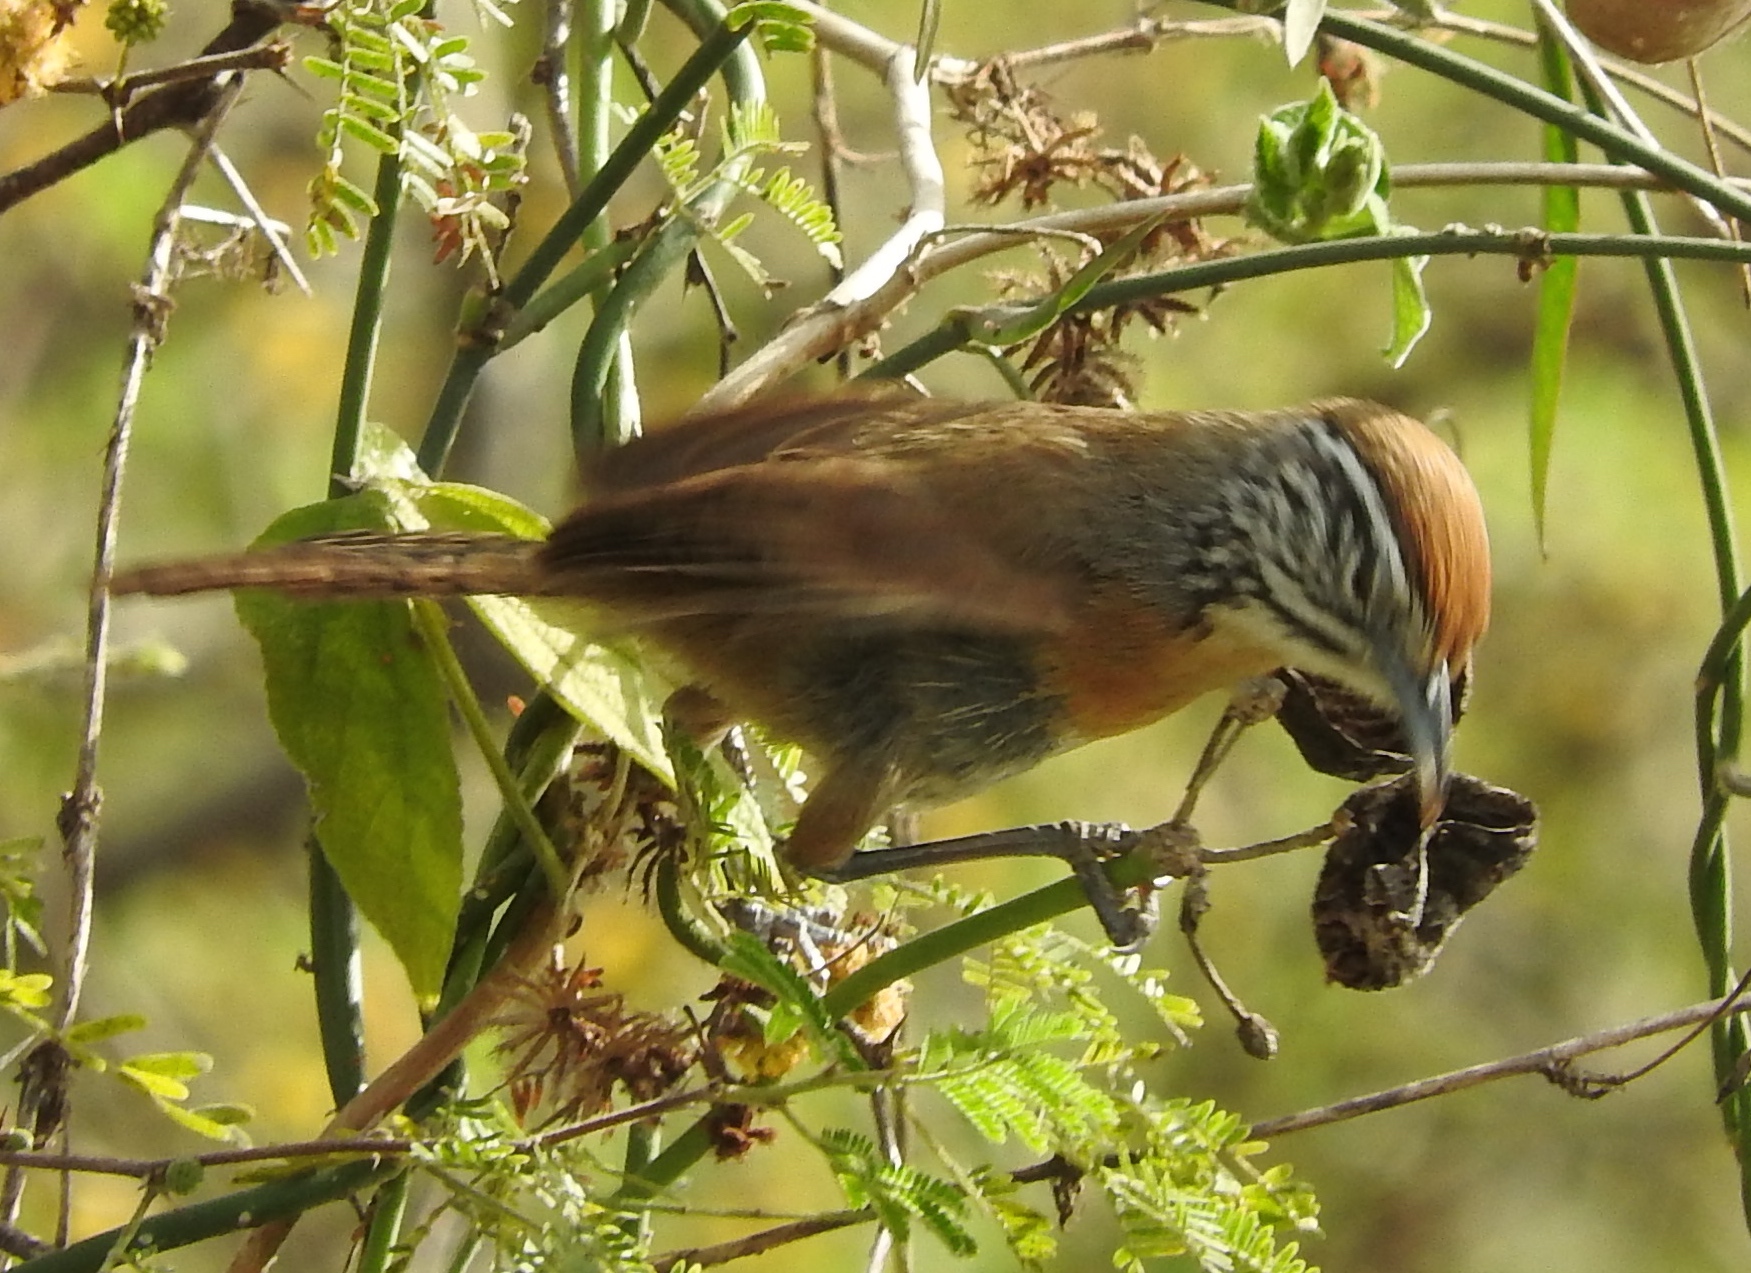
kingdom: Animalia
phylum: Chordata
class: Aves
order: Passeriformes
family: Troglodytidae
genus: Pheugopedius
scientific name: Pheugopedius felix
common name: Happy wren
